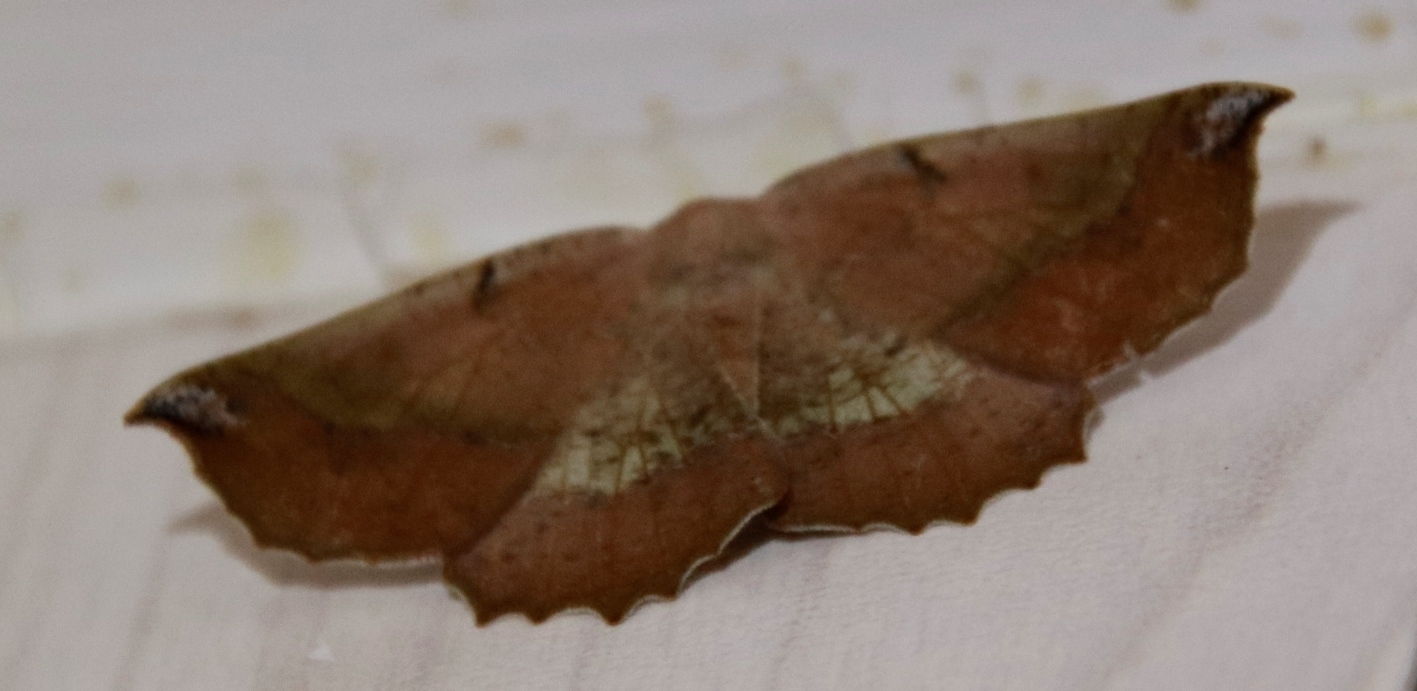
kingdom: Animalia
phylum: Arthropoda
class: Insecta
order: Lepidoptera
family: Geometridae
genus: Drepanogynis
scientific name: Drepanogynis mixtaria
